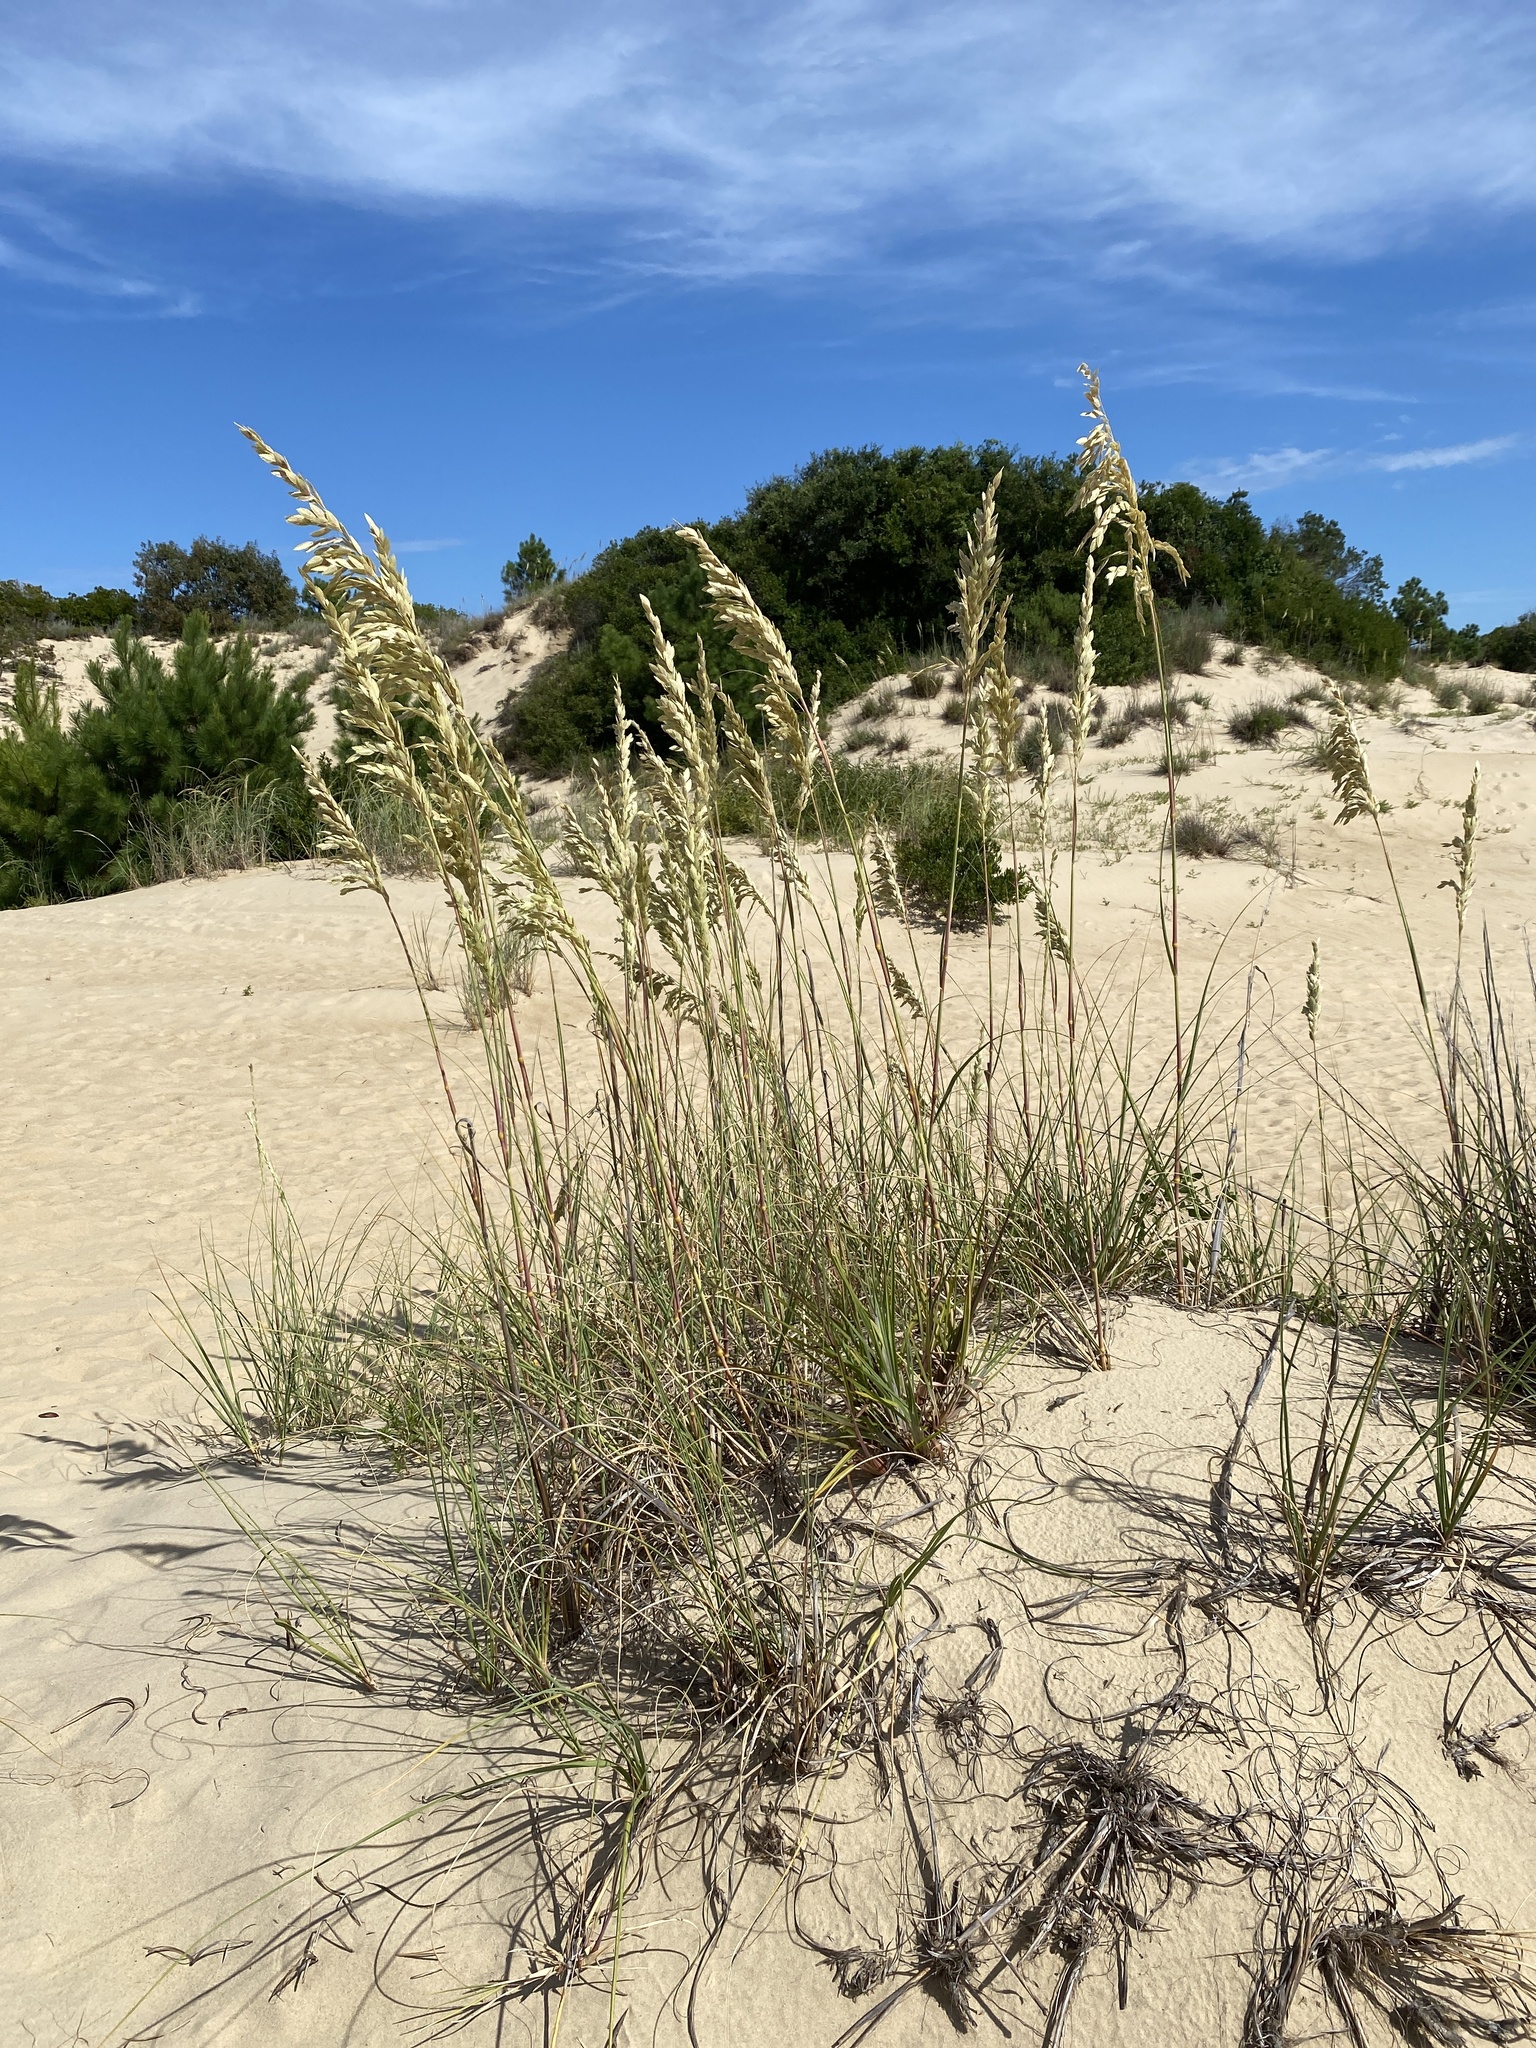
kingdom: Plantae
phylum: Tracheophyta
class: Liliopsida
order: Poales
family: Poaceae
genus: Uniola
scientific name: Uniola paniculata
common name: Seaside-oats
